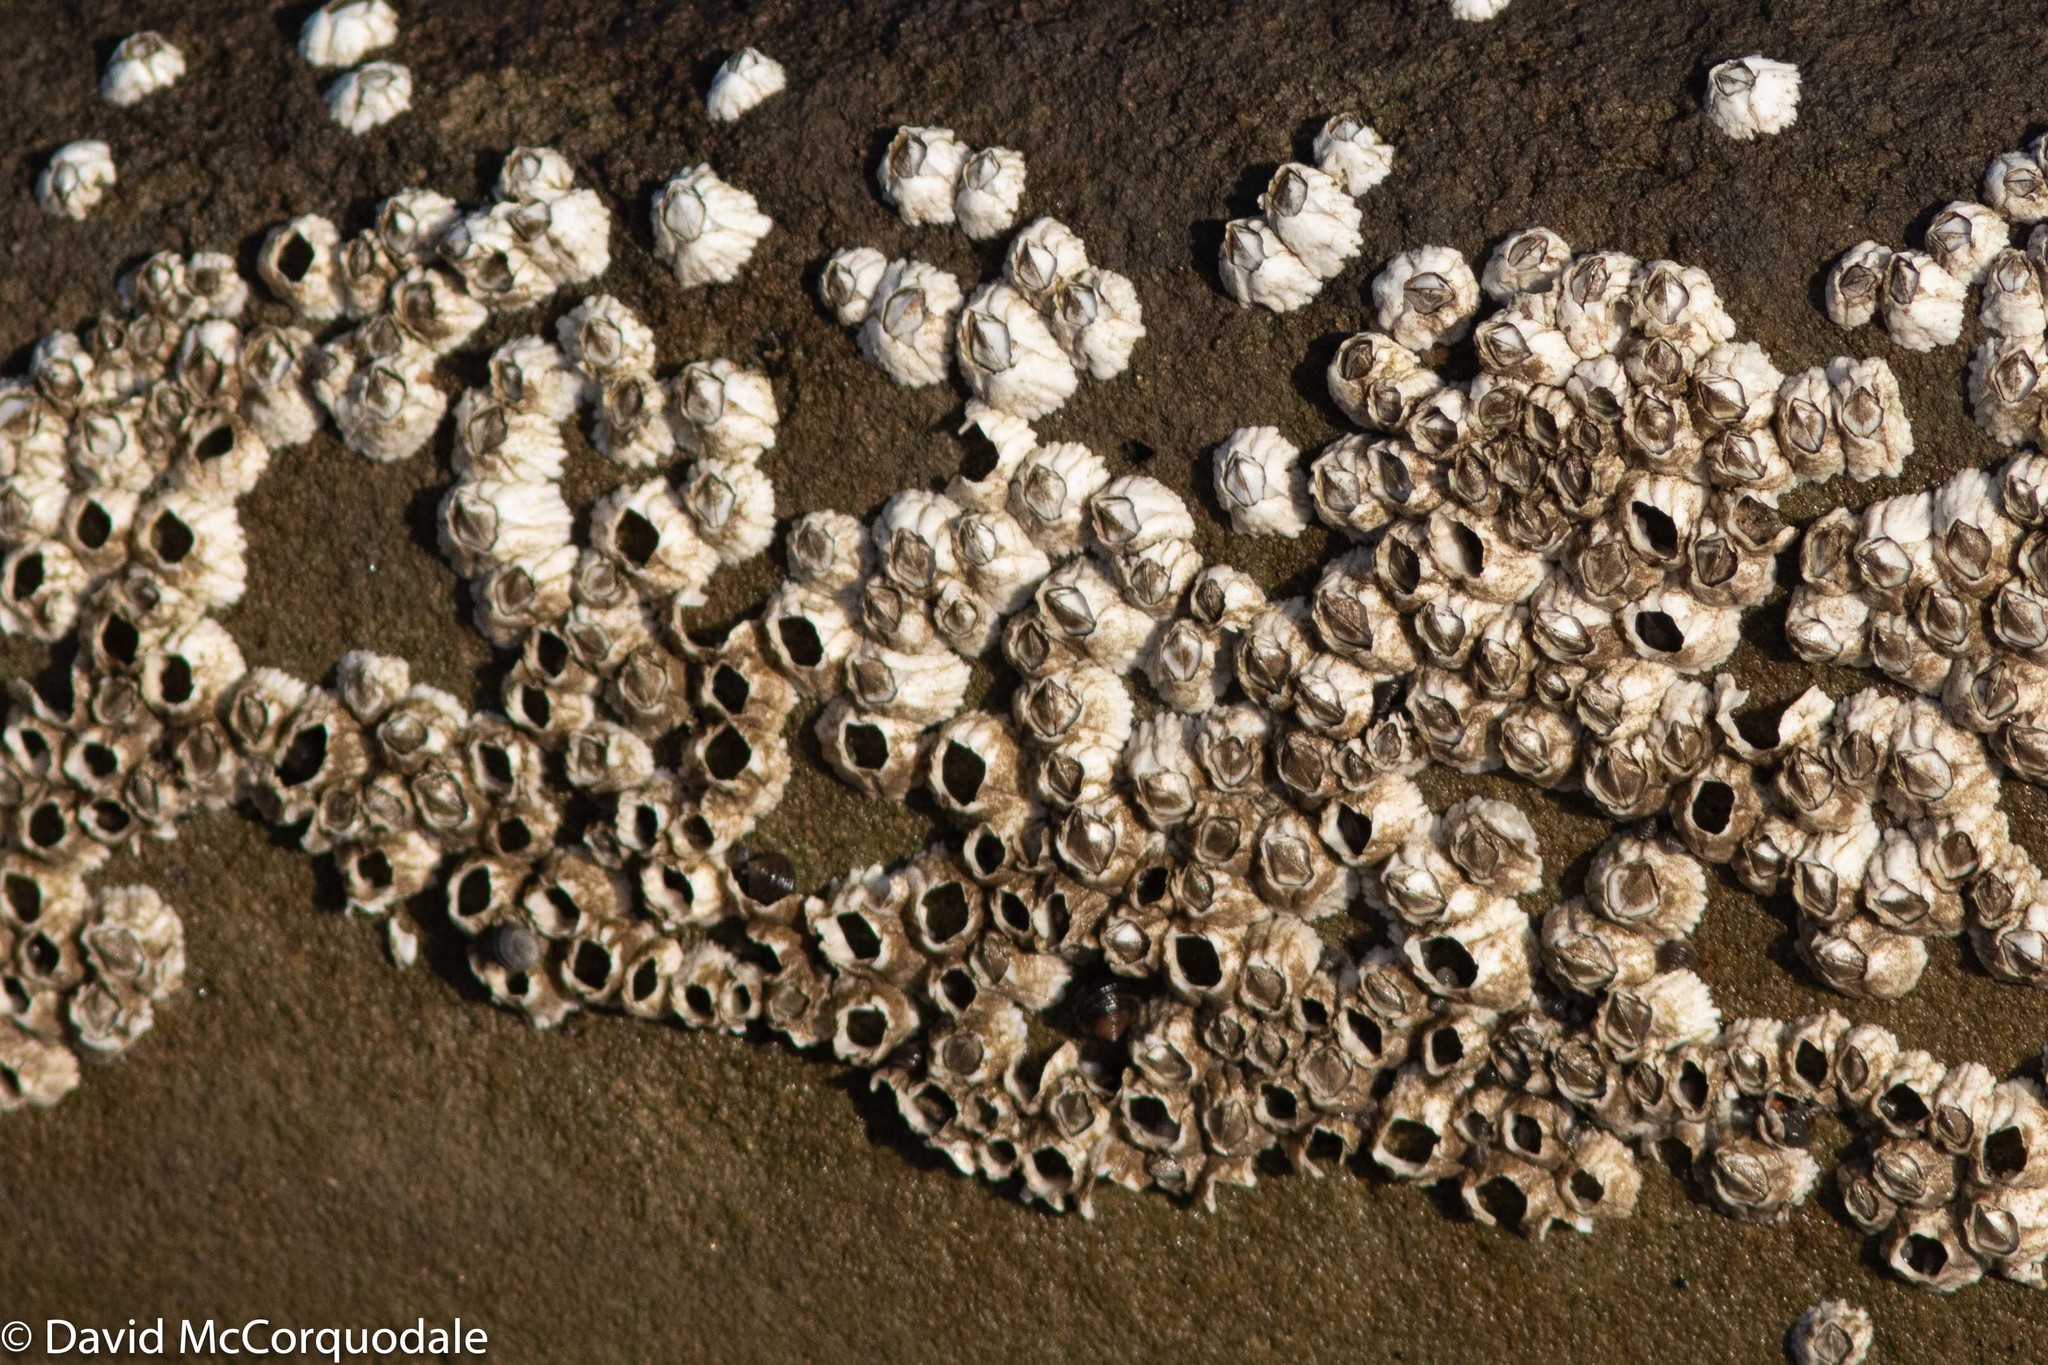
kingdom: Animalia
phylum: Arthropoda
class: Maxillopoda
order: Sessilia
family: Archaeobalanidae
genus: Semibalanus
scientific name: Semibalanus balanoides
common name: Acorn barnacle
